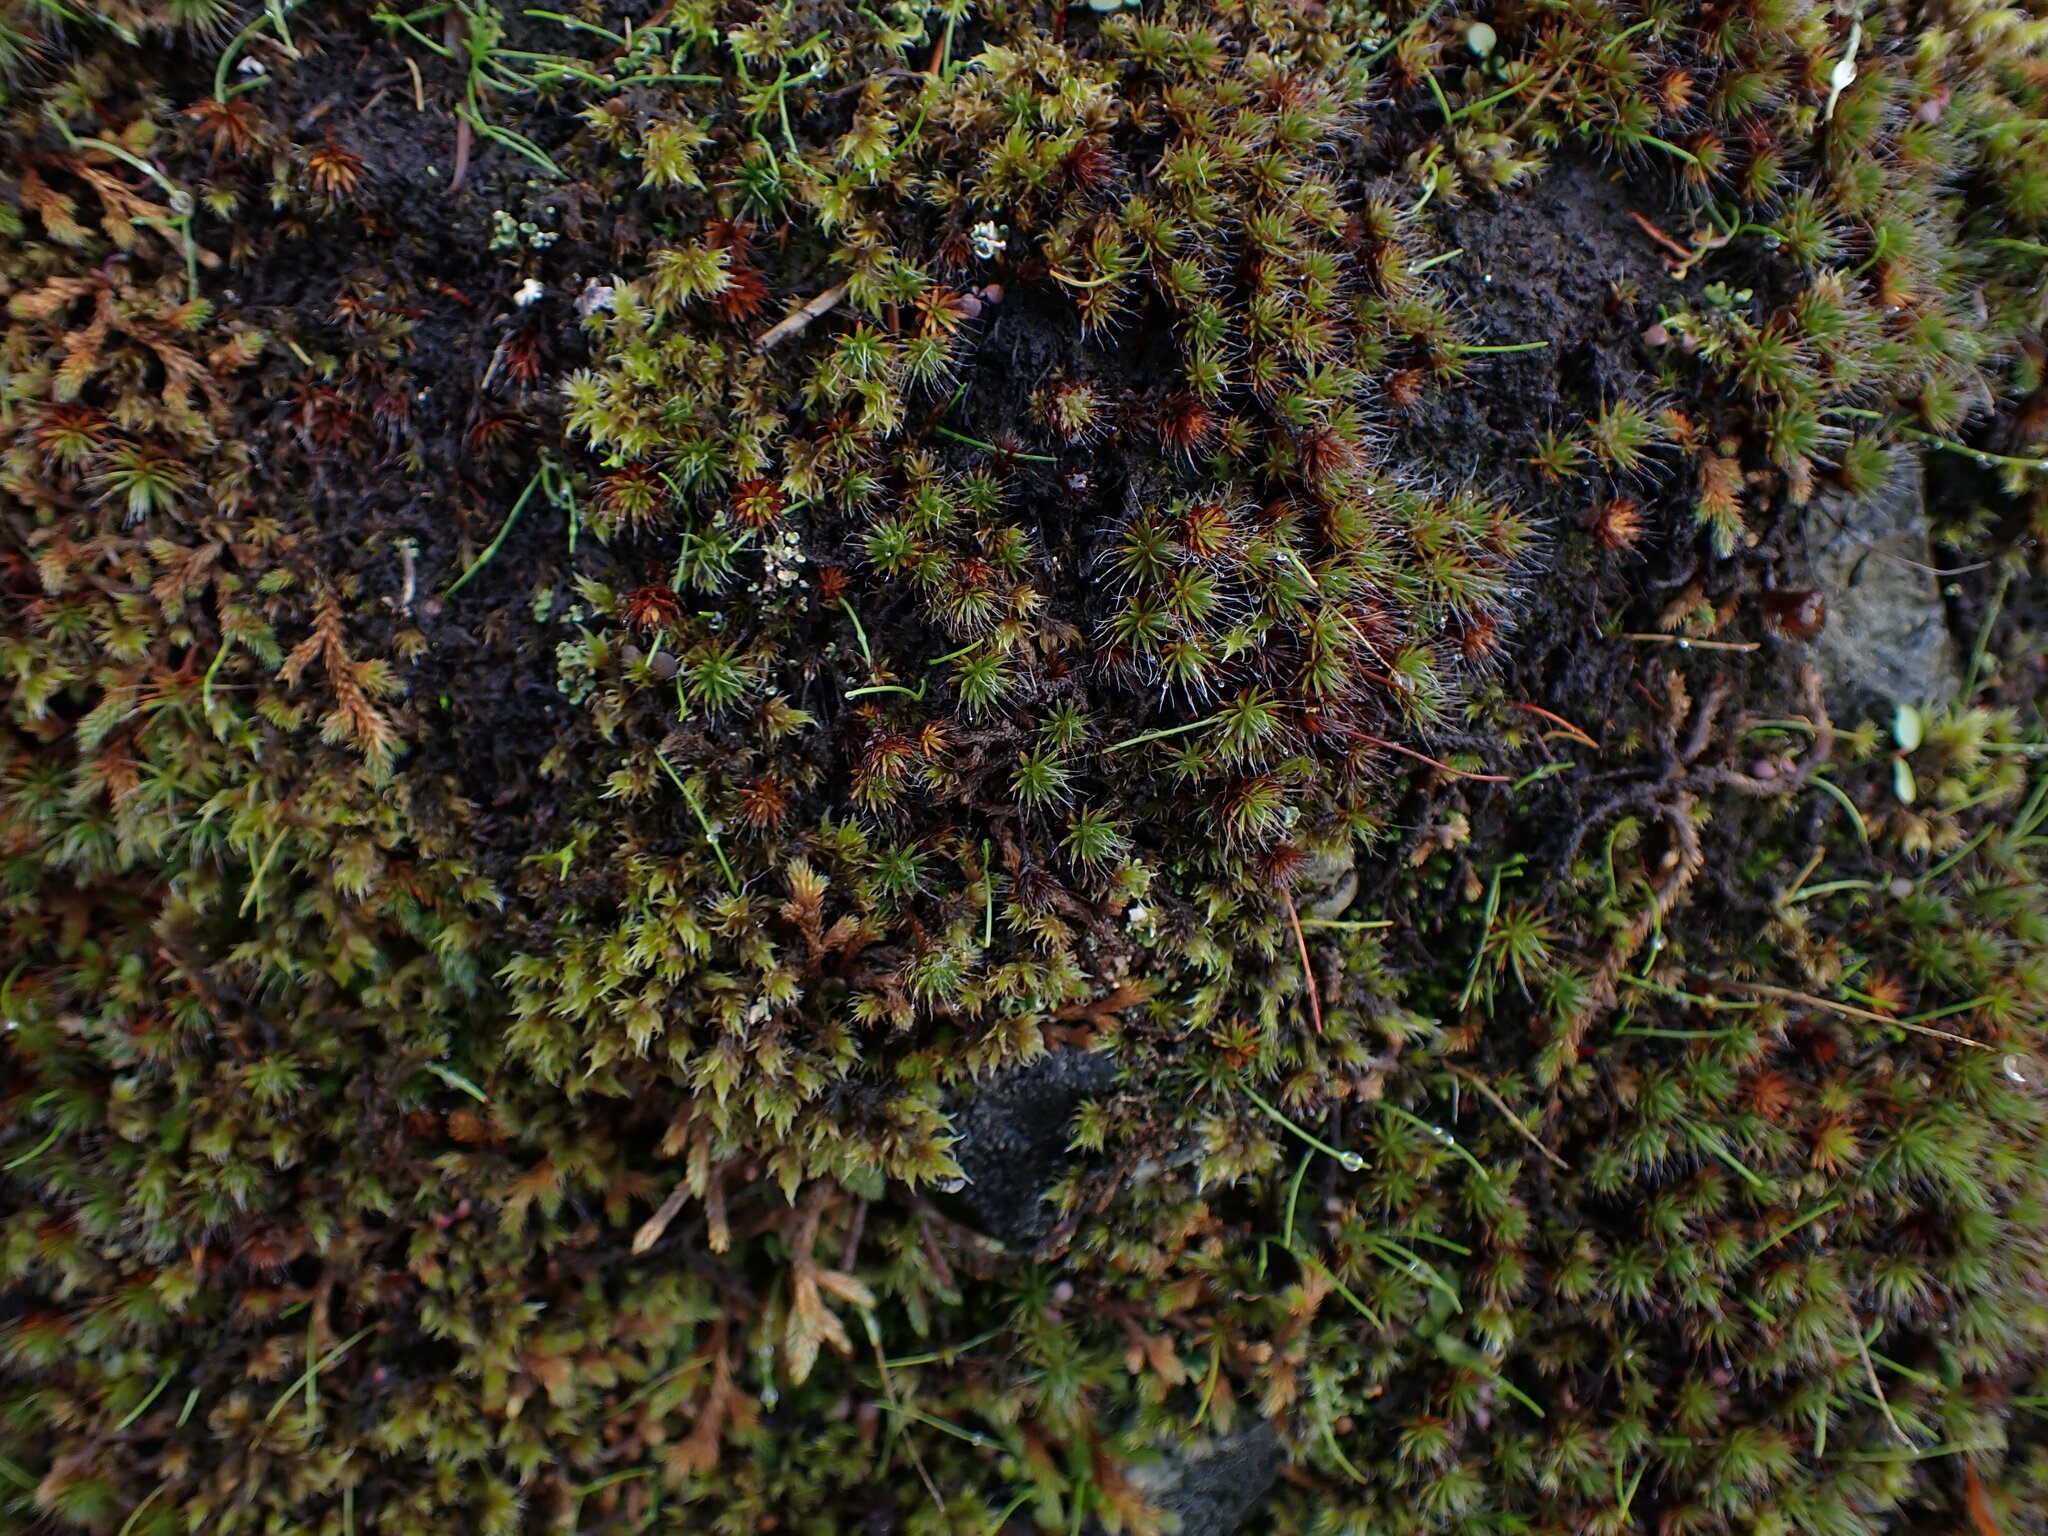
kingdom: Plantae
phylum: Bryophyta
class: Polytrichopsida
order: Polytrichales
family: Polytrichaceae
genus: Polytrichum
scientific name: Polytrichum piliferum
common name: Bristly haircap
